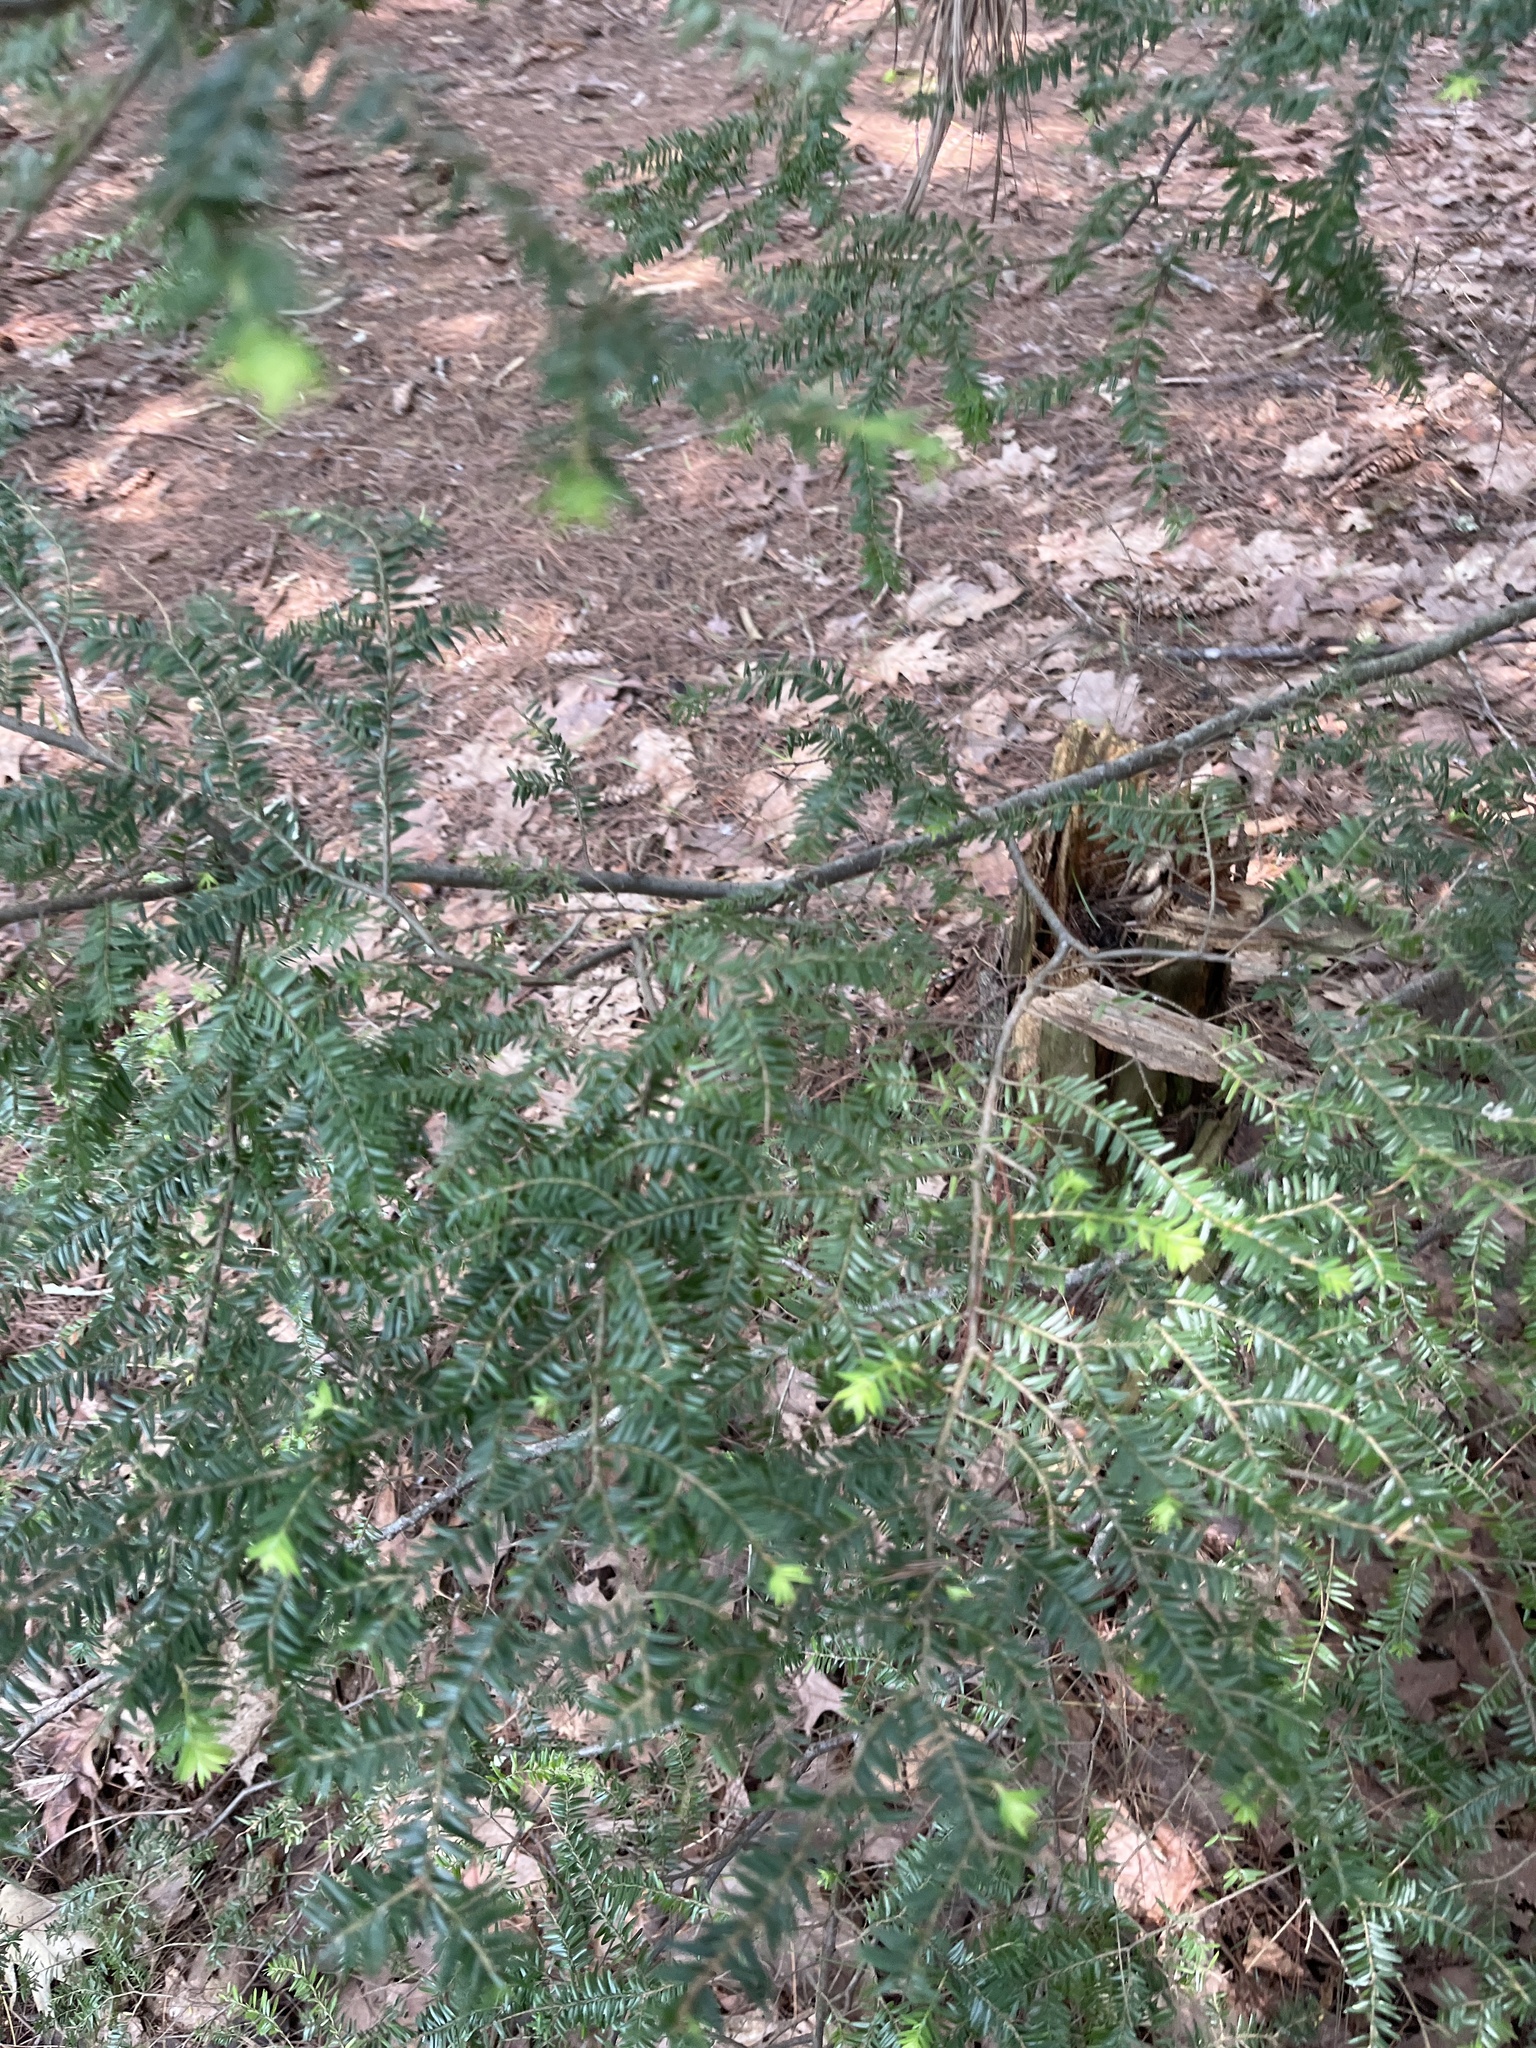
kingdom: Plantae
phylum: Tracheophyta
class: Pinopsida
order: Pinales
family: Pinaceae
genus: Tsuga
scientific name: Tsuga canadensis
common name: Eastern hemlock
